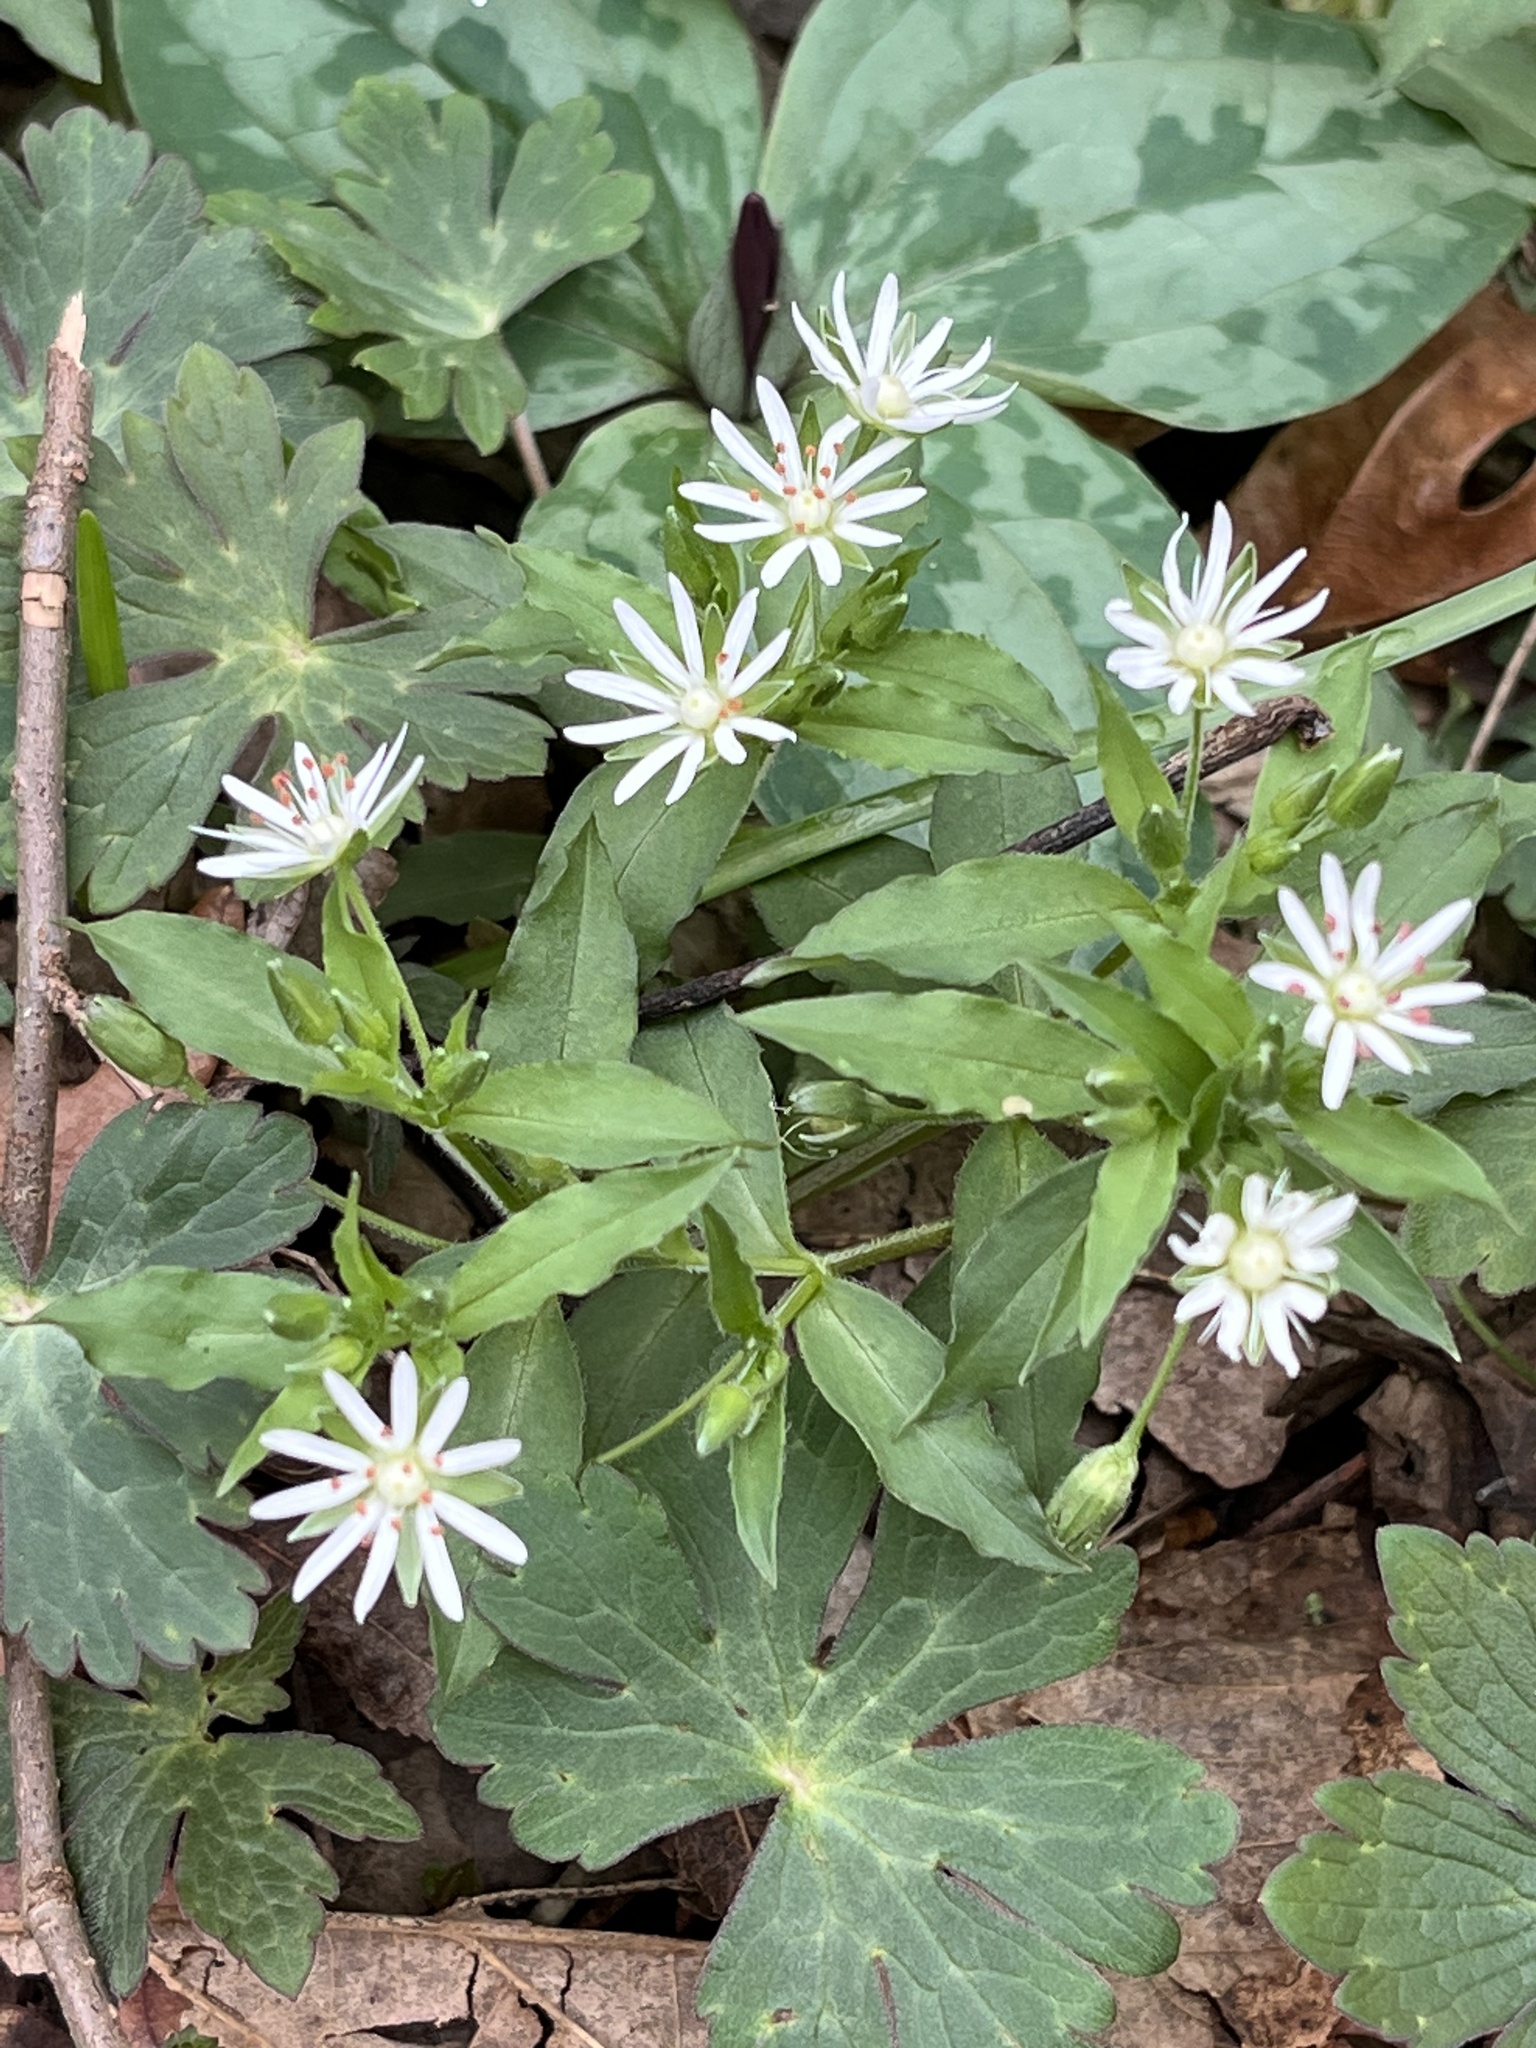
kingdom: Plantae
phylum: Tracheophyta
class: Magnoliopsida
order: Caryophyllales
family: Caryophyllaceae
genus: Stellaria
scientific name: Stellaria pubera
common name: Star chickweed
